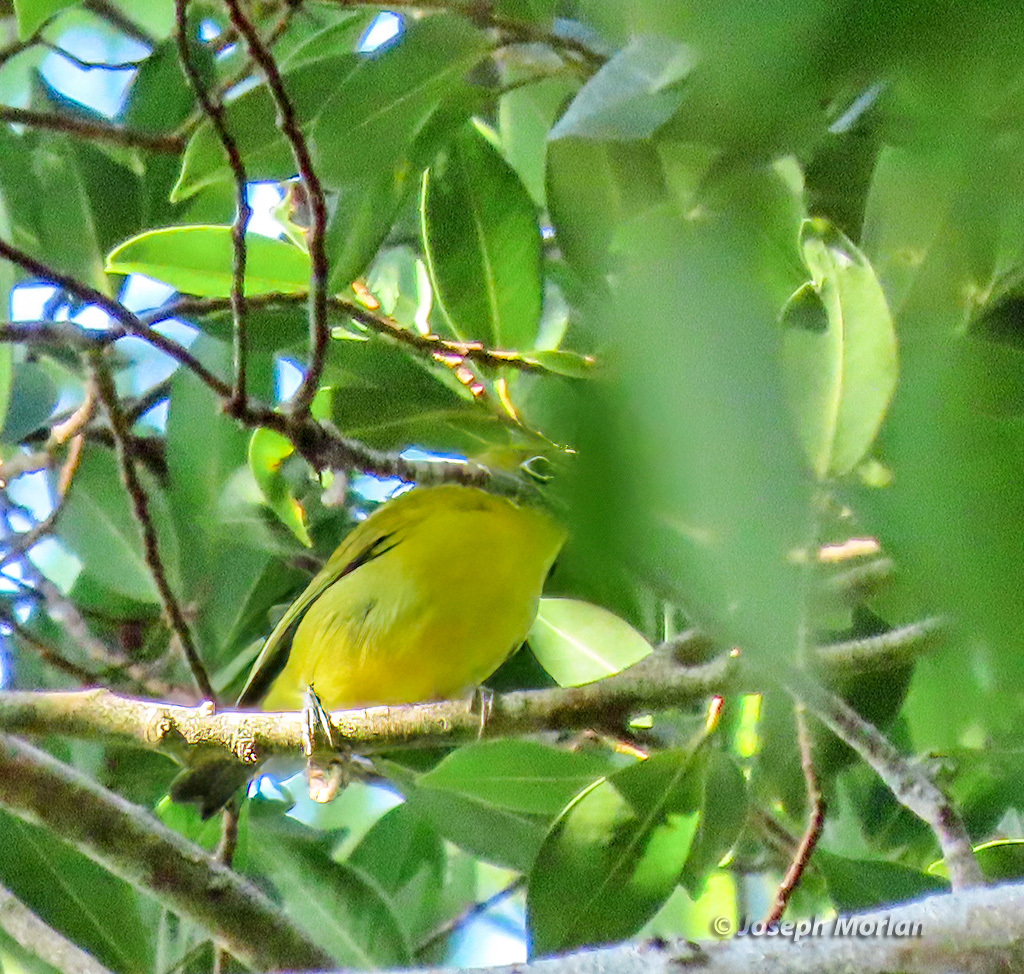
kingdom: Animalia
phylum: Chordata
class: Aves
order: Passeriformes
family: Zosteropidae
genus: Zosterops
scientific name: Zosterops chloris
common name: Lemon-bellied white-eye
